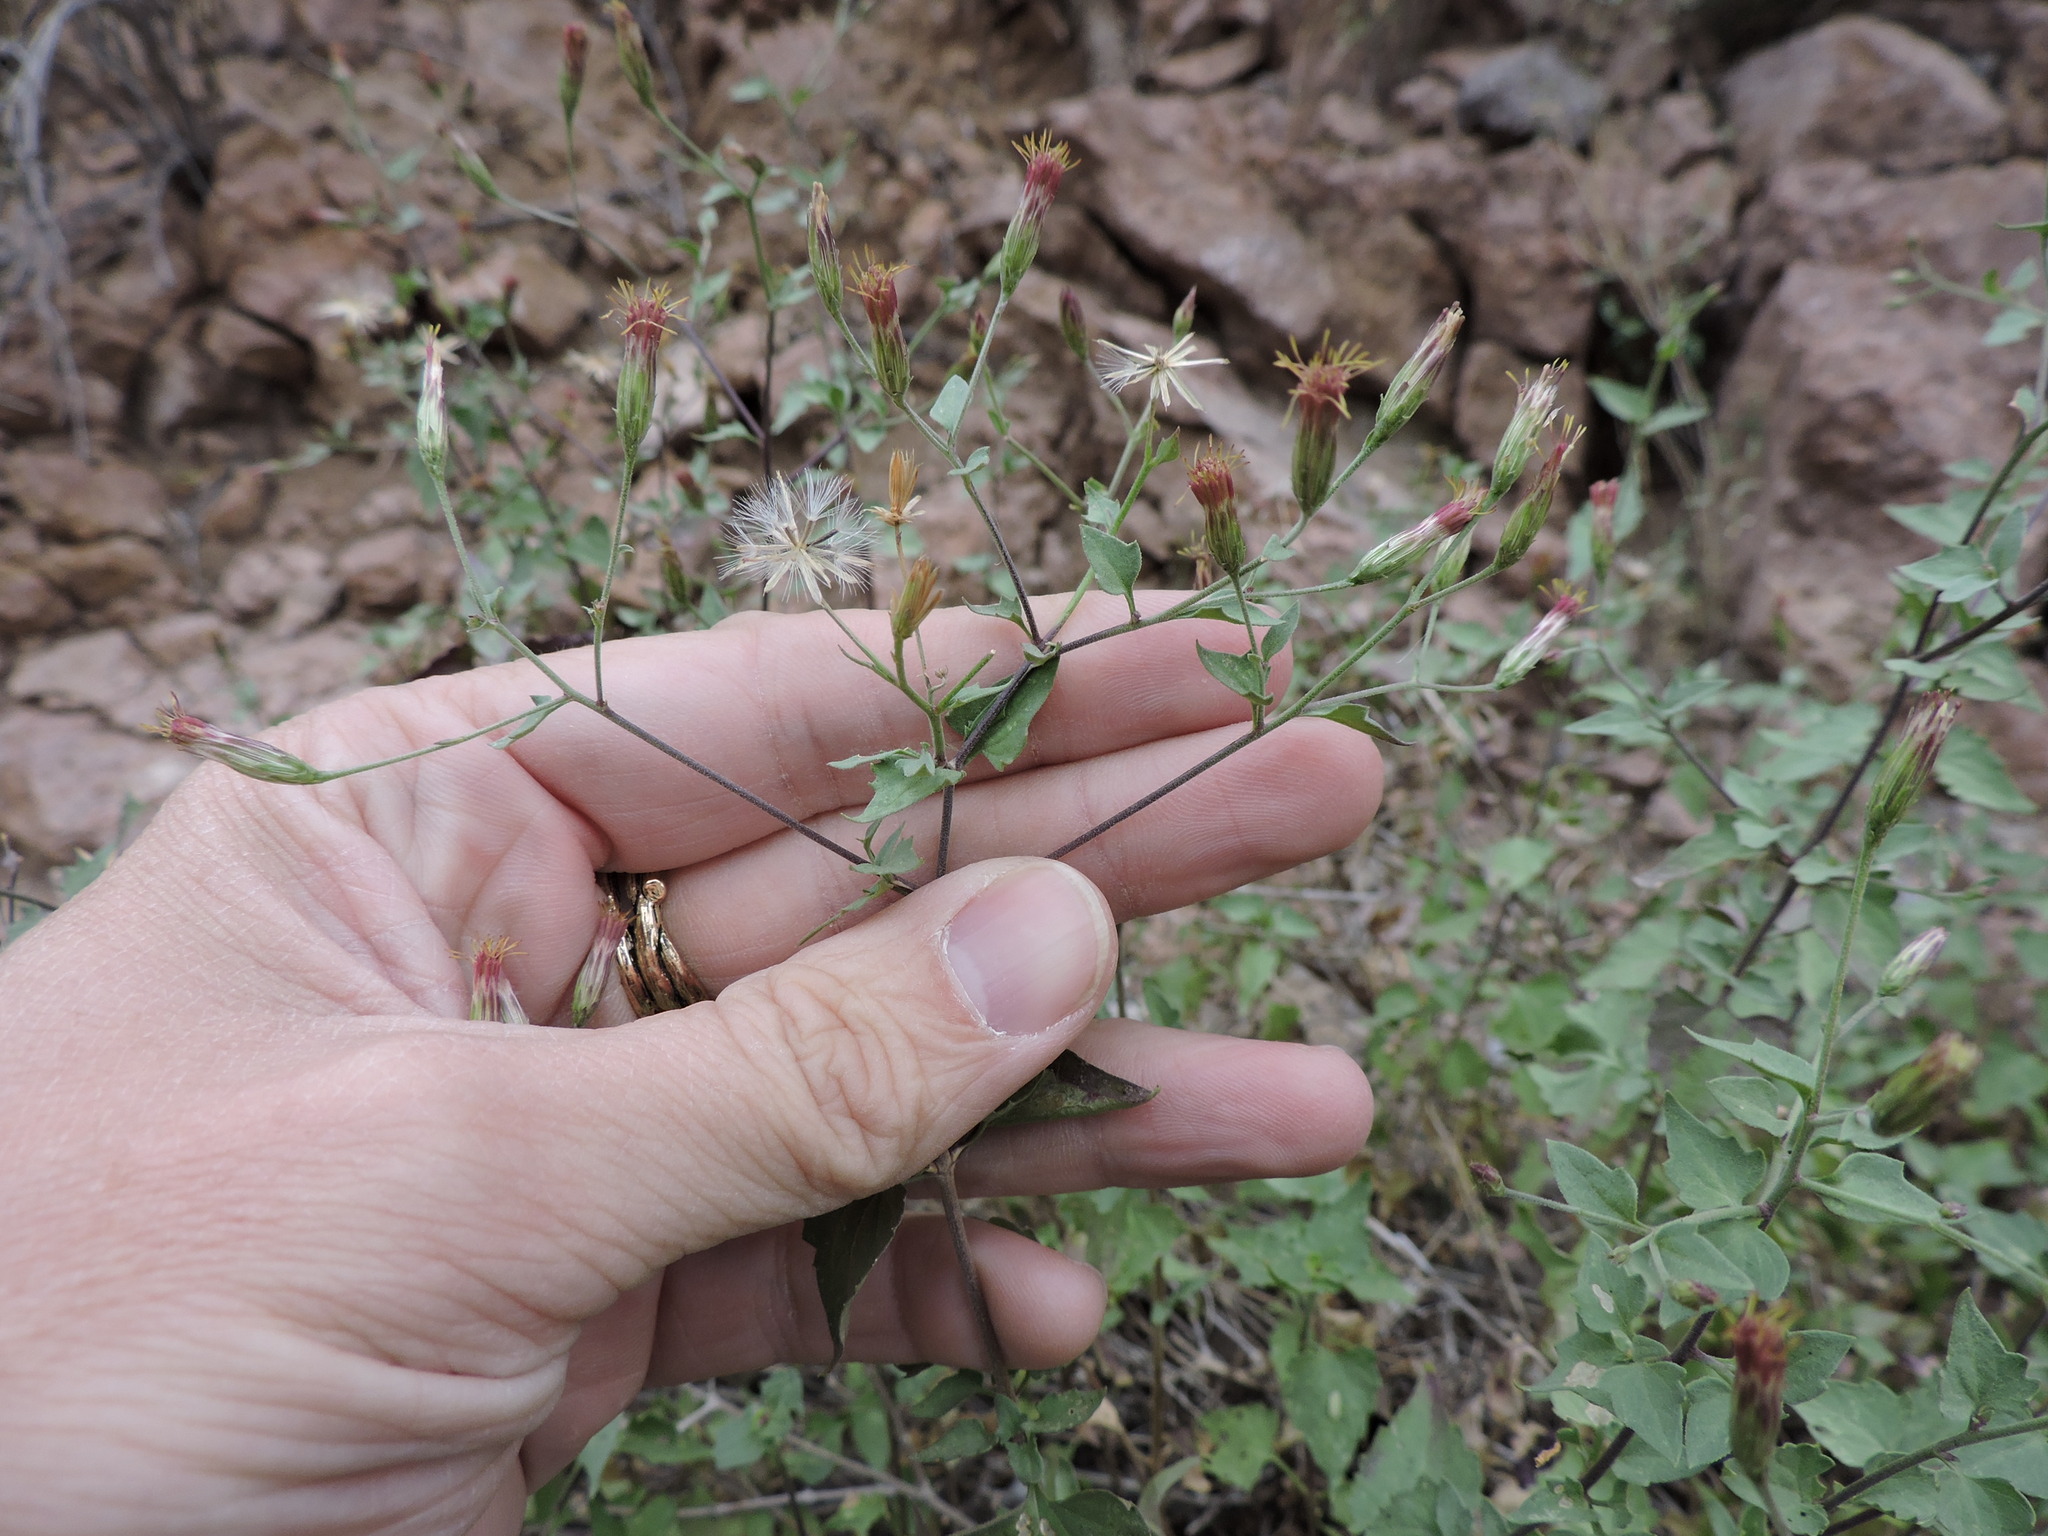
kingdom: Plantae
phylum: Tracheophyta
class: Magnoliopsida
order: Asterales
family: Asteraceae
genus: Brickellia
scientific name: Brickellia coulteri
